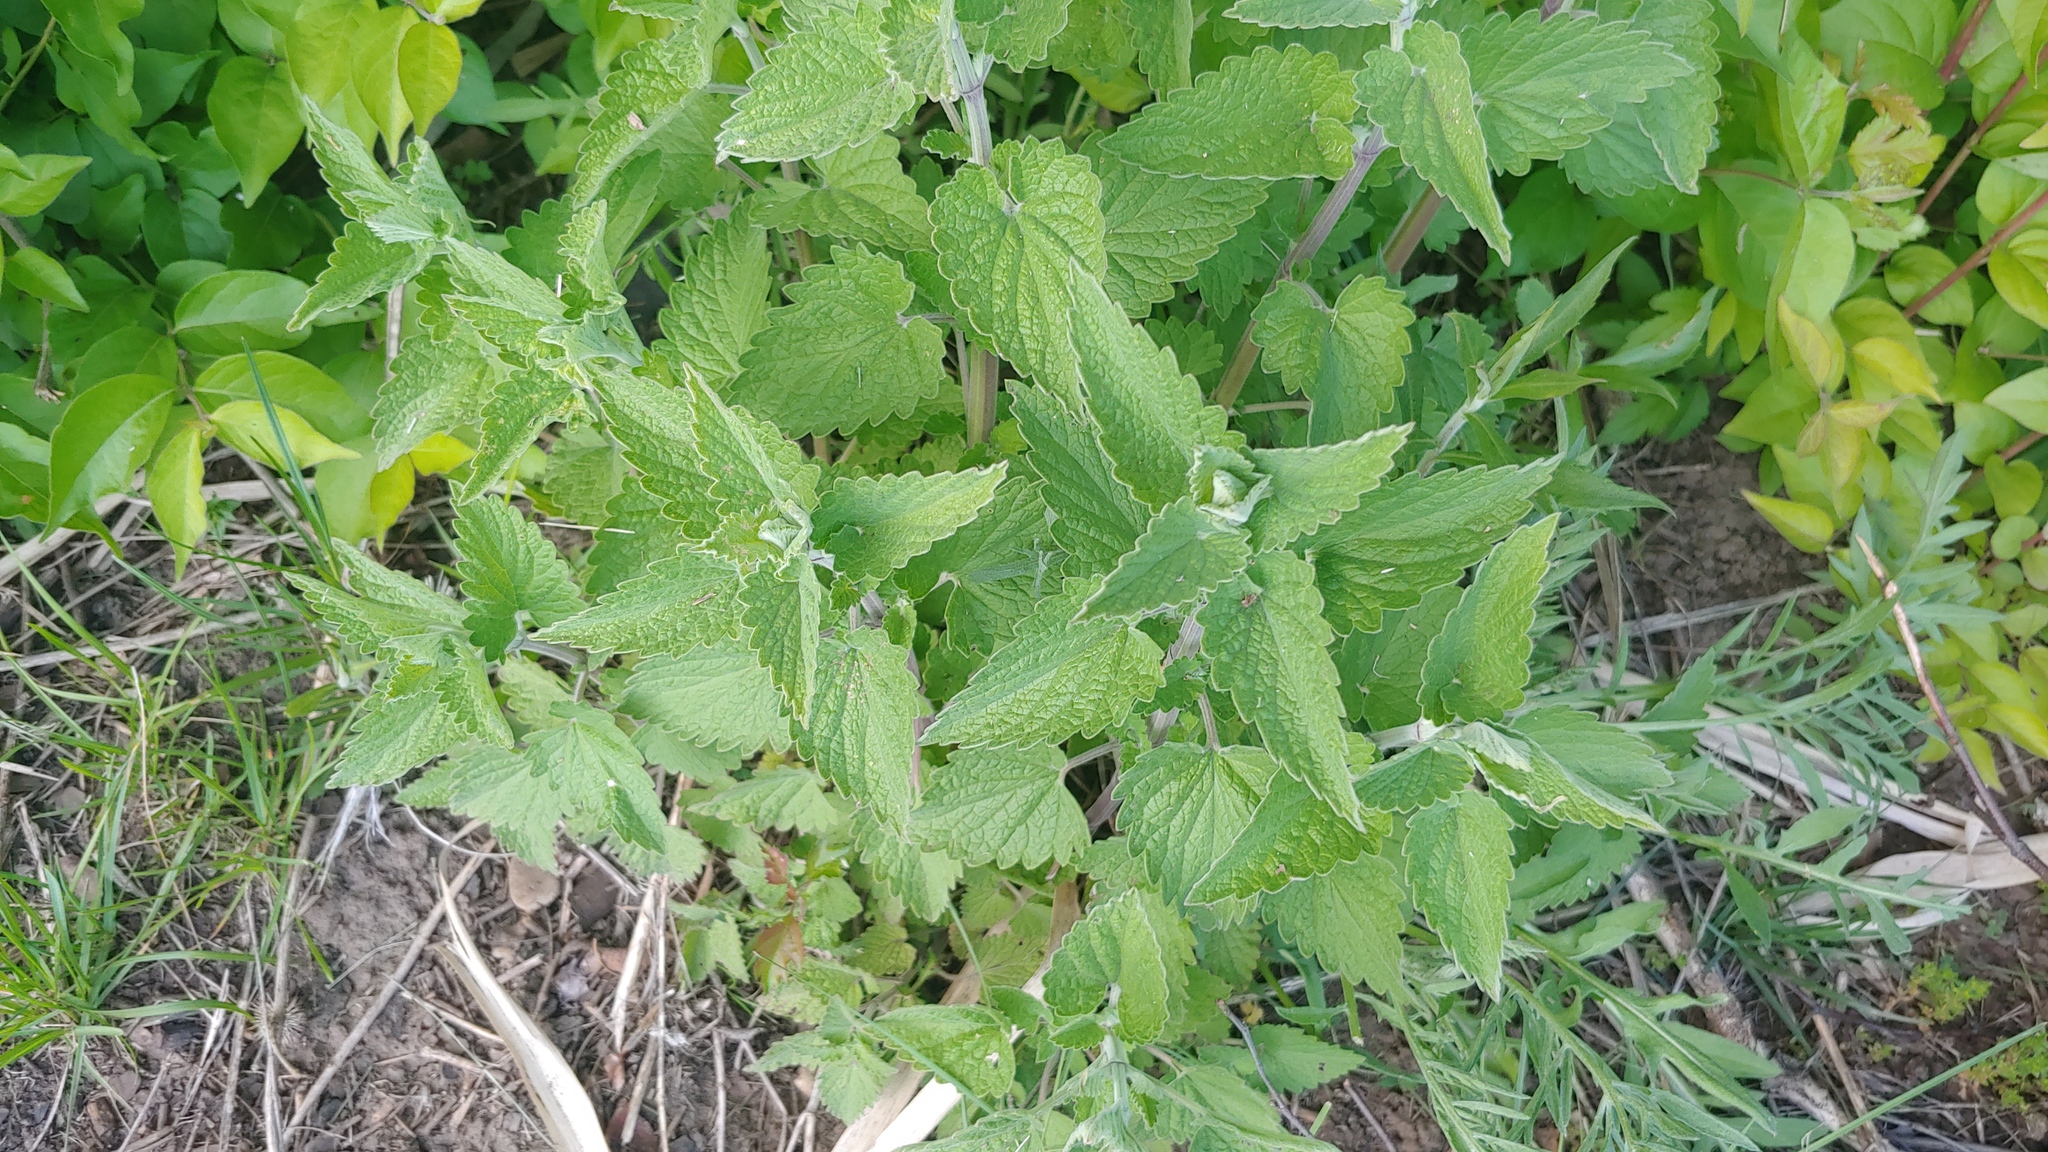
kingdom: Plantae
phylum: Tracheophyta
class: Magnoliopsida
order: Lamiales
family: Lamiaceae
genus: Nepeta
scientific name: Nepeta cataria
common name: Catnip
